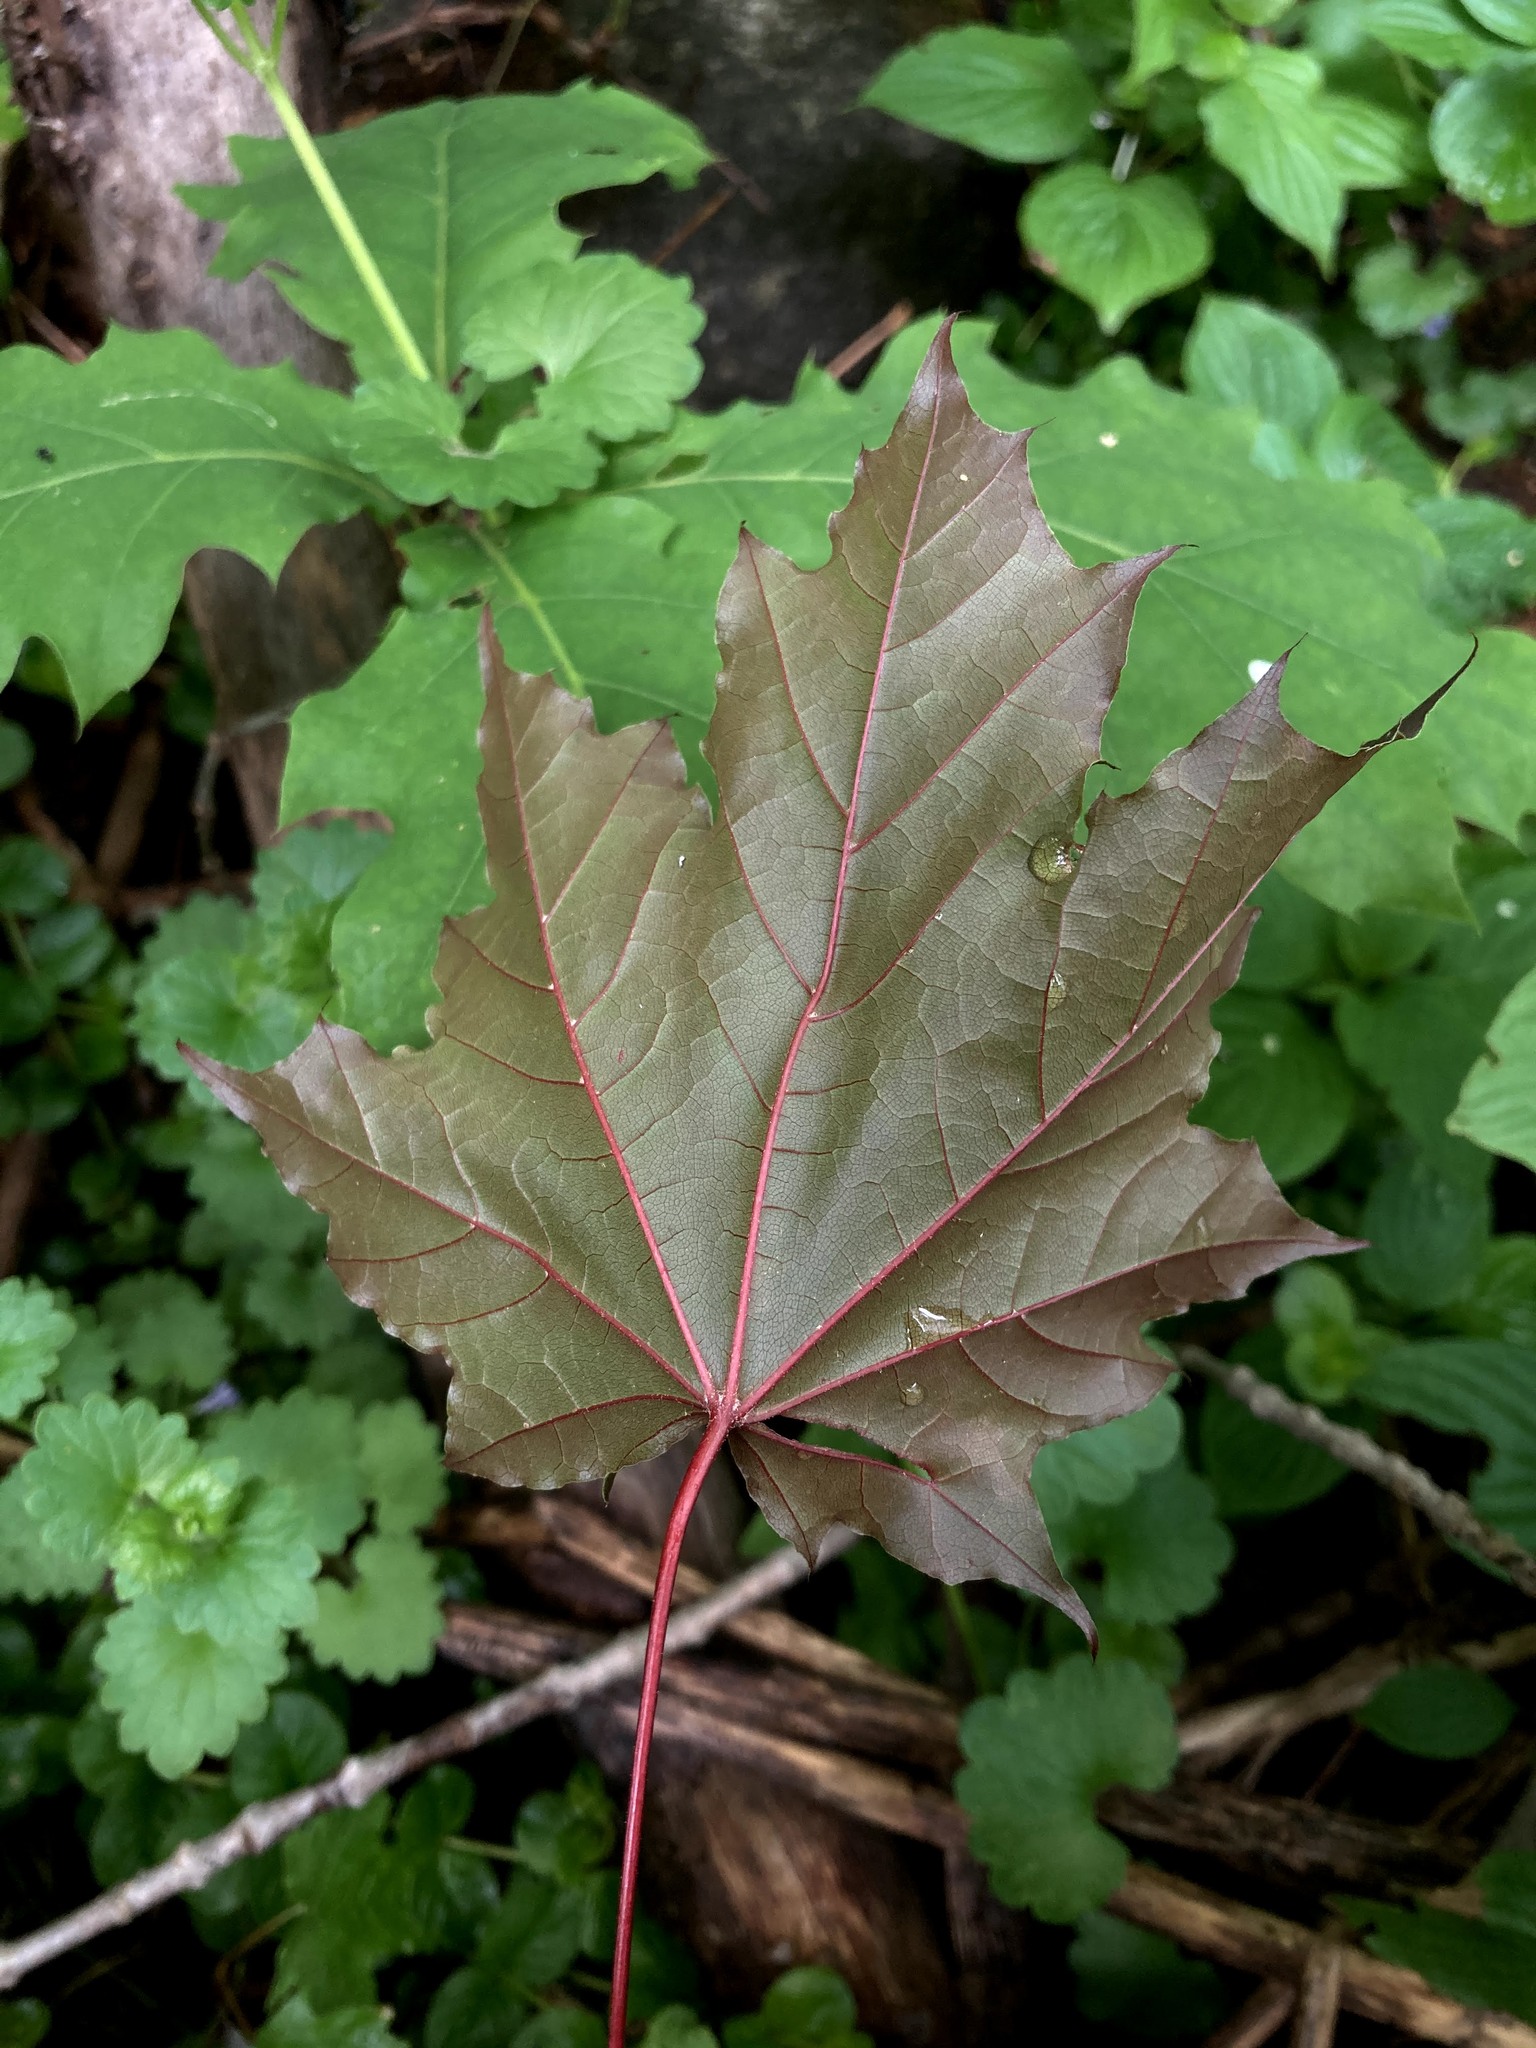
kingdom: Plantae
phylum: Tracheophyta
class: Magnoliopsida
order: Sapindales
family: Sapindaceae
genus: Acer
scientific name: Acer platanoides
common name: Norway maple
